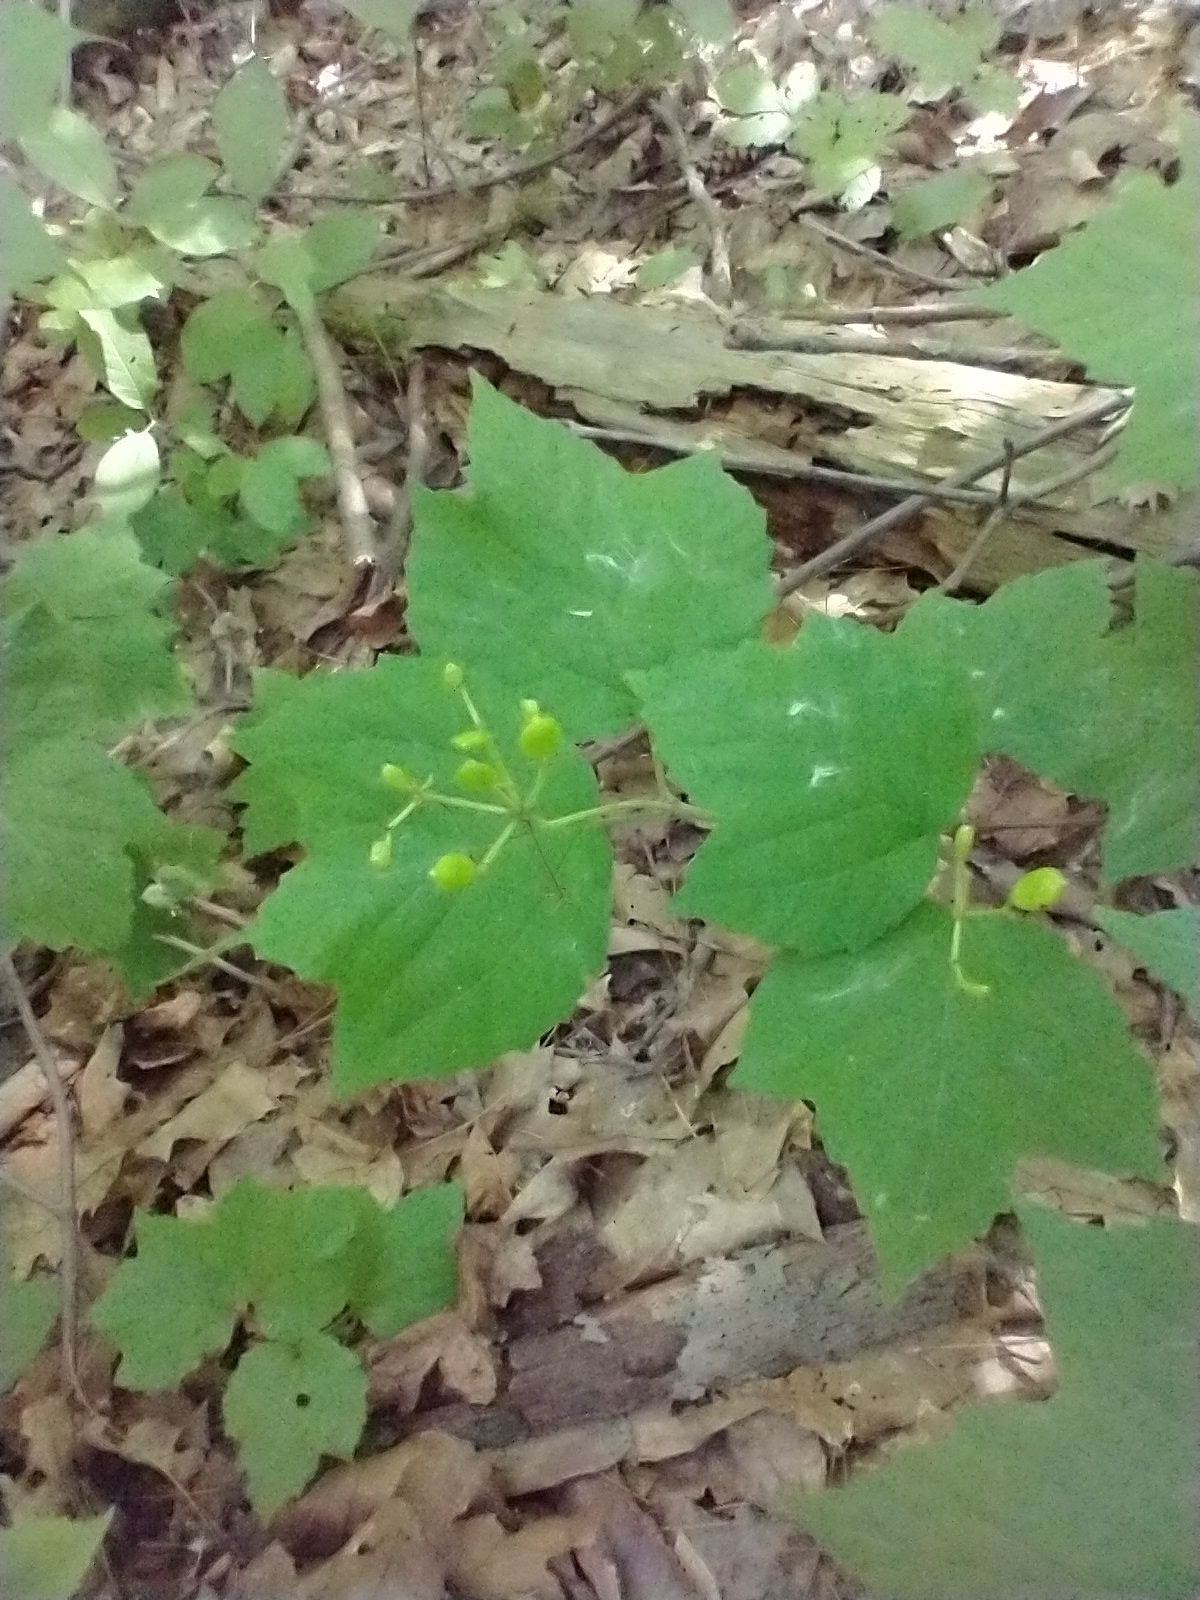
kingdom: Plantae
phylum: Tracheophyta
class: Magnoliopsida
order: Dipsacales
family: Viburnaceae
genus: Viburnum
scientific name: Viburnum acerifolium
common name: Dockmackie
